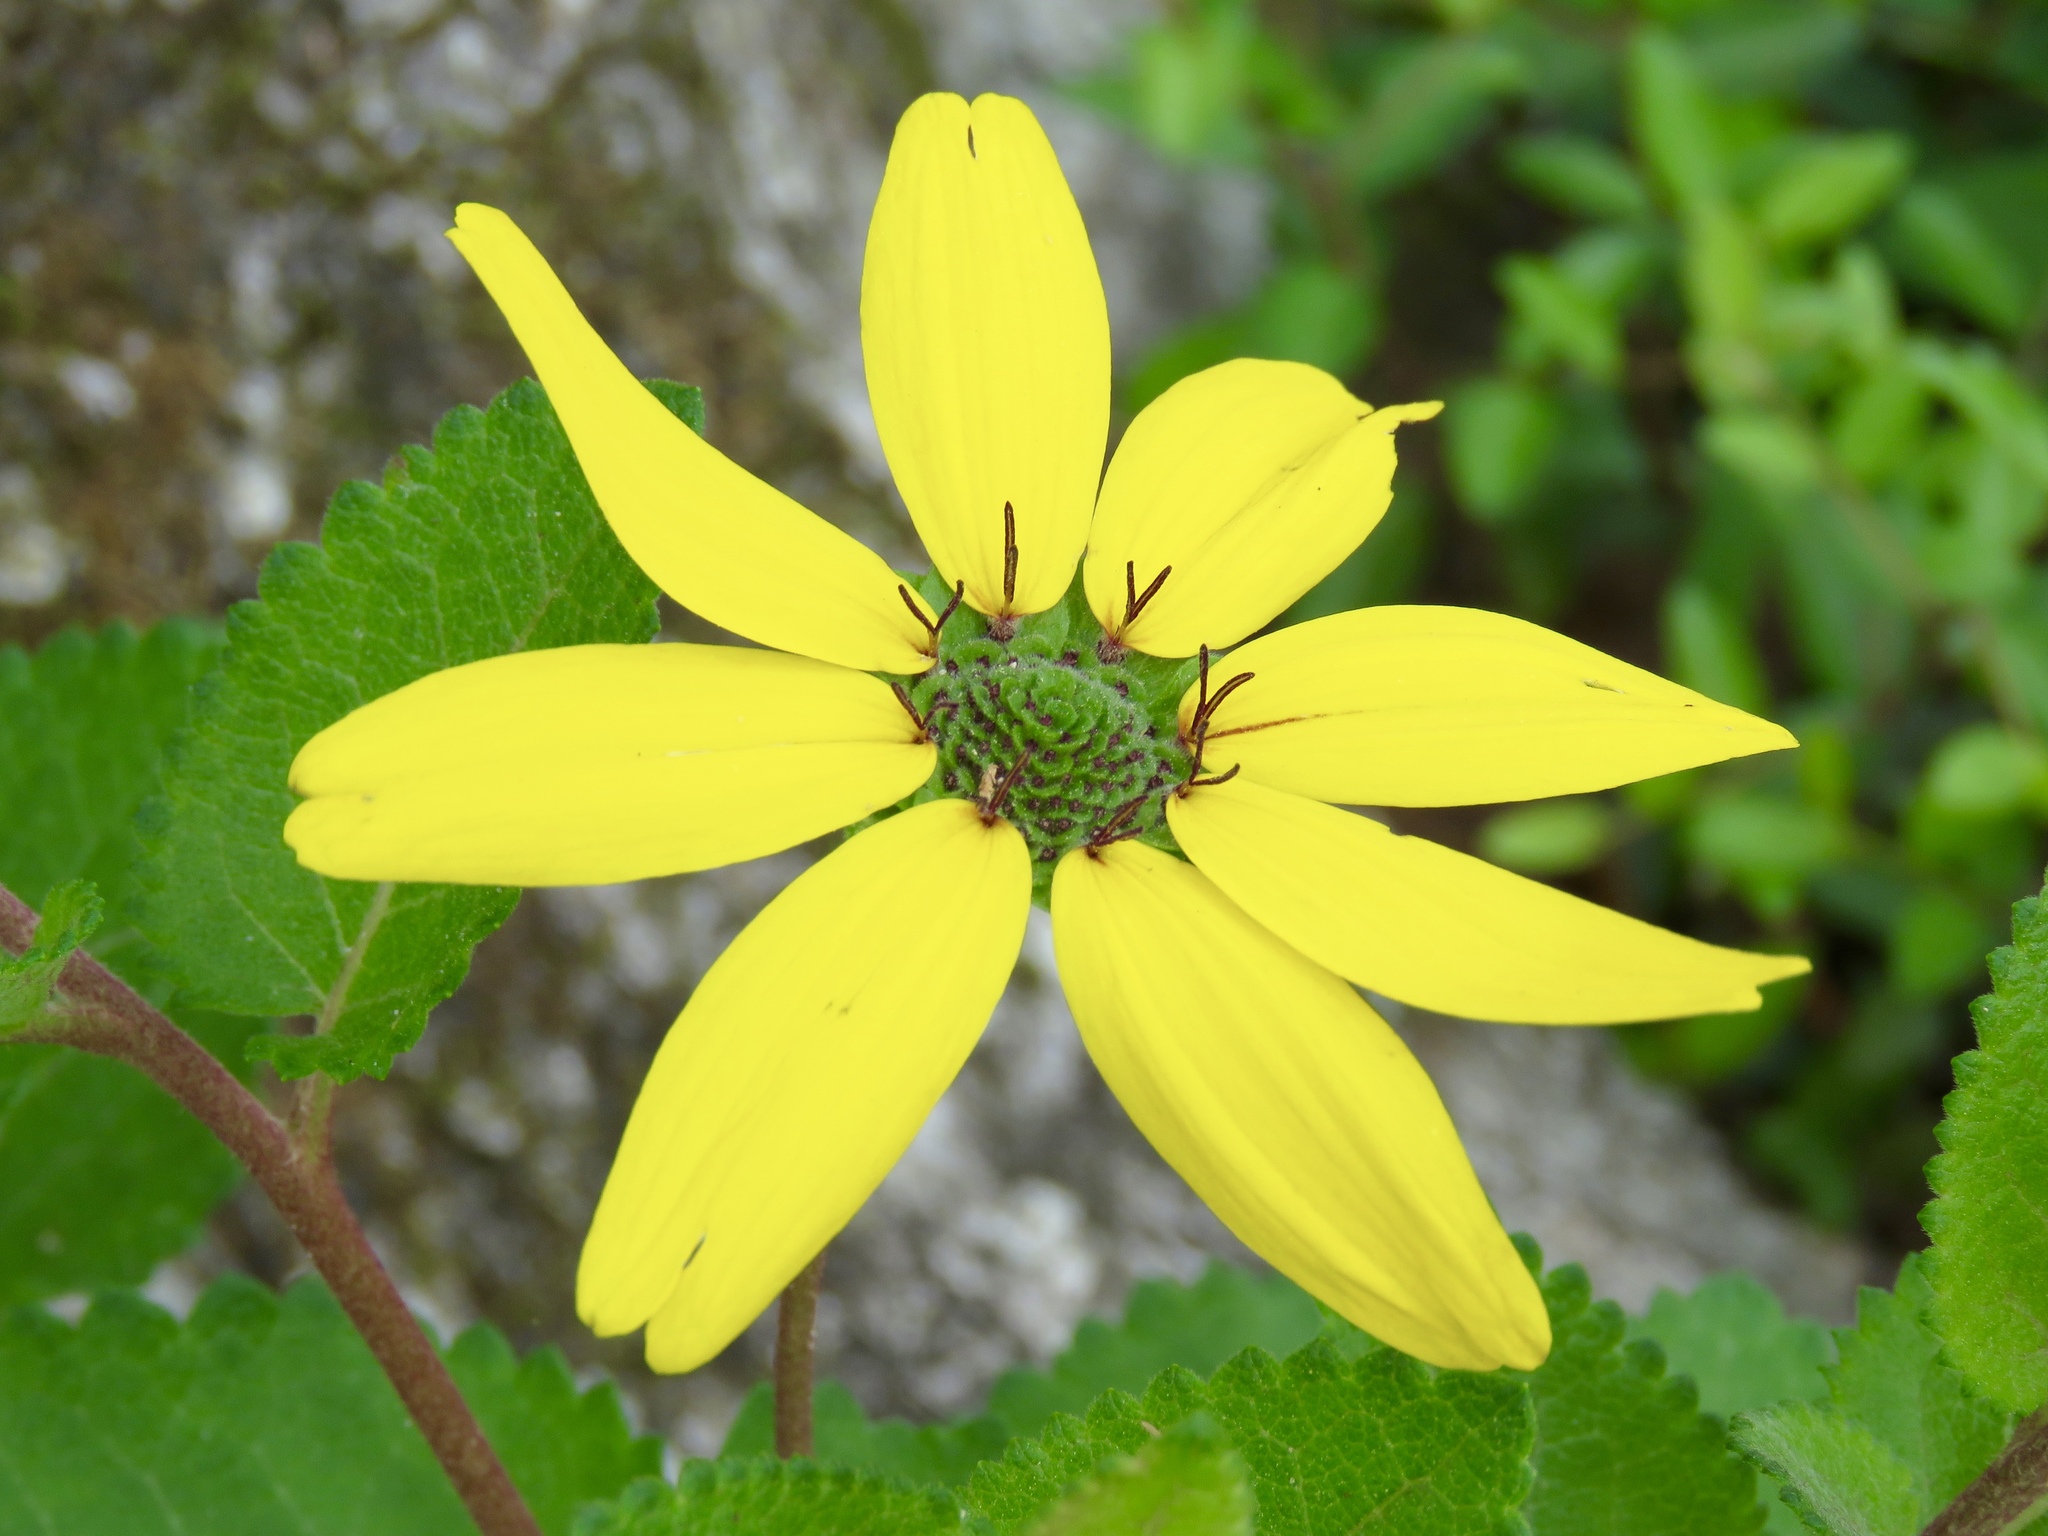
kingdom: Plantae
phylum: Tracheophyta
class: Magnoliopsida
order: Asterales
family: Asteraceae
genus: Berlandiera
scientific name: Berlandiera pumila
